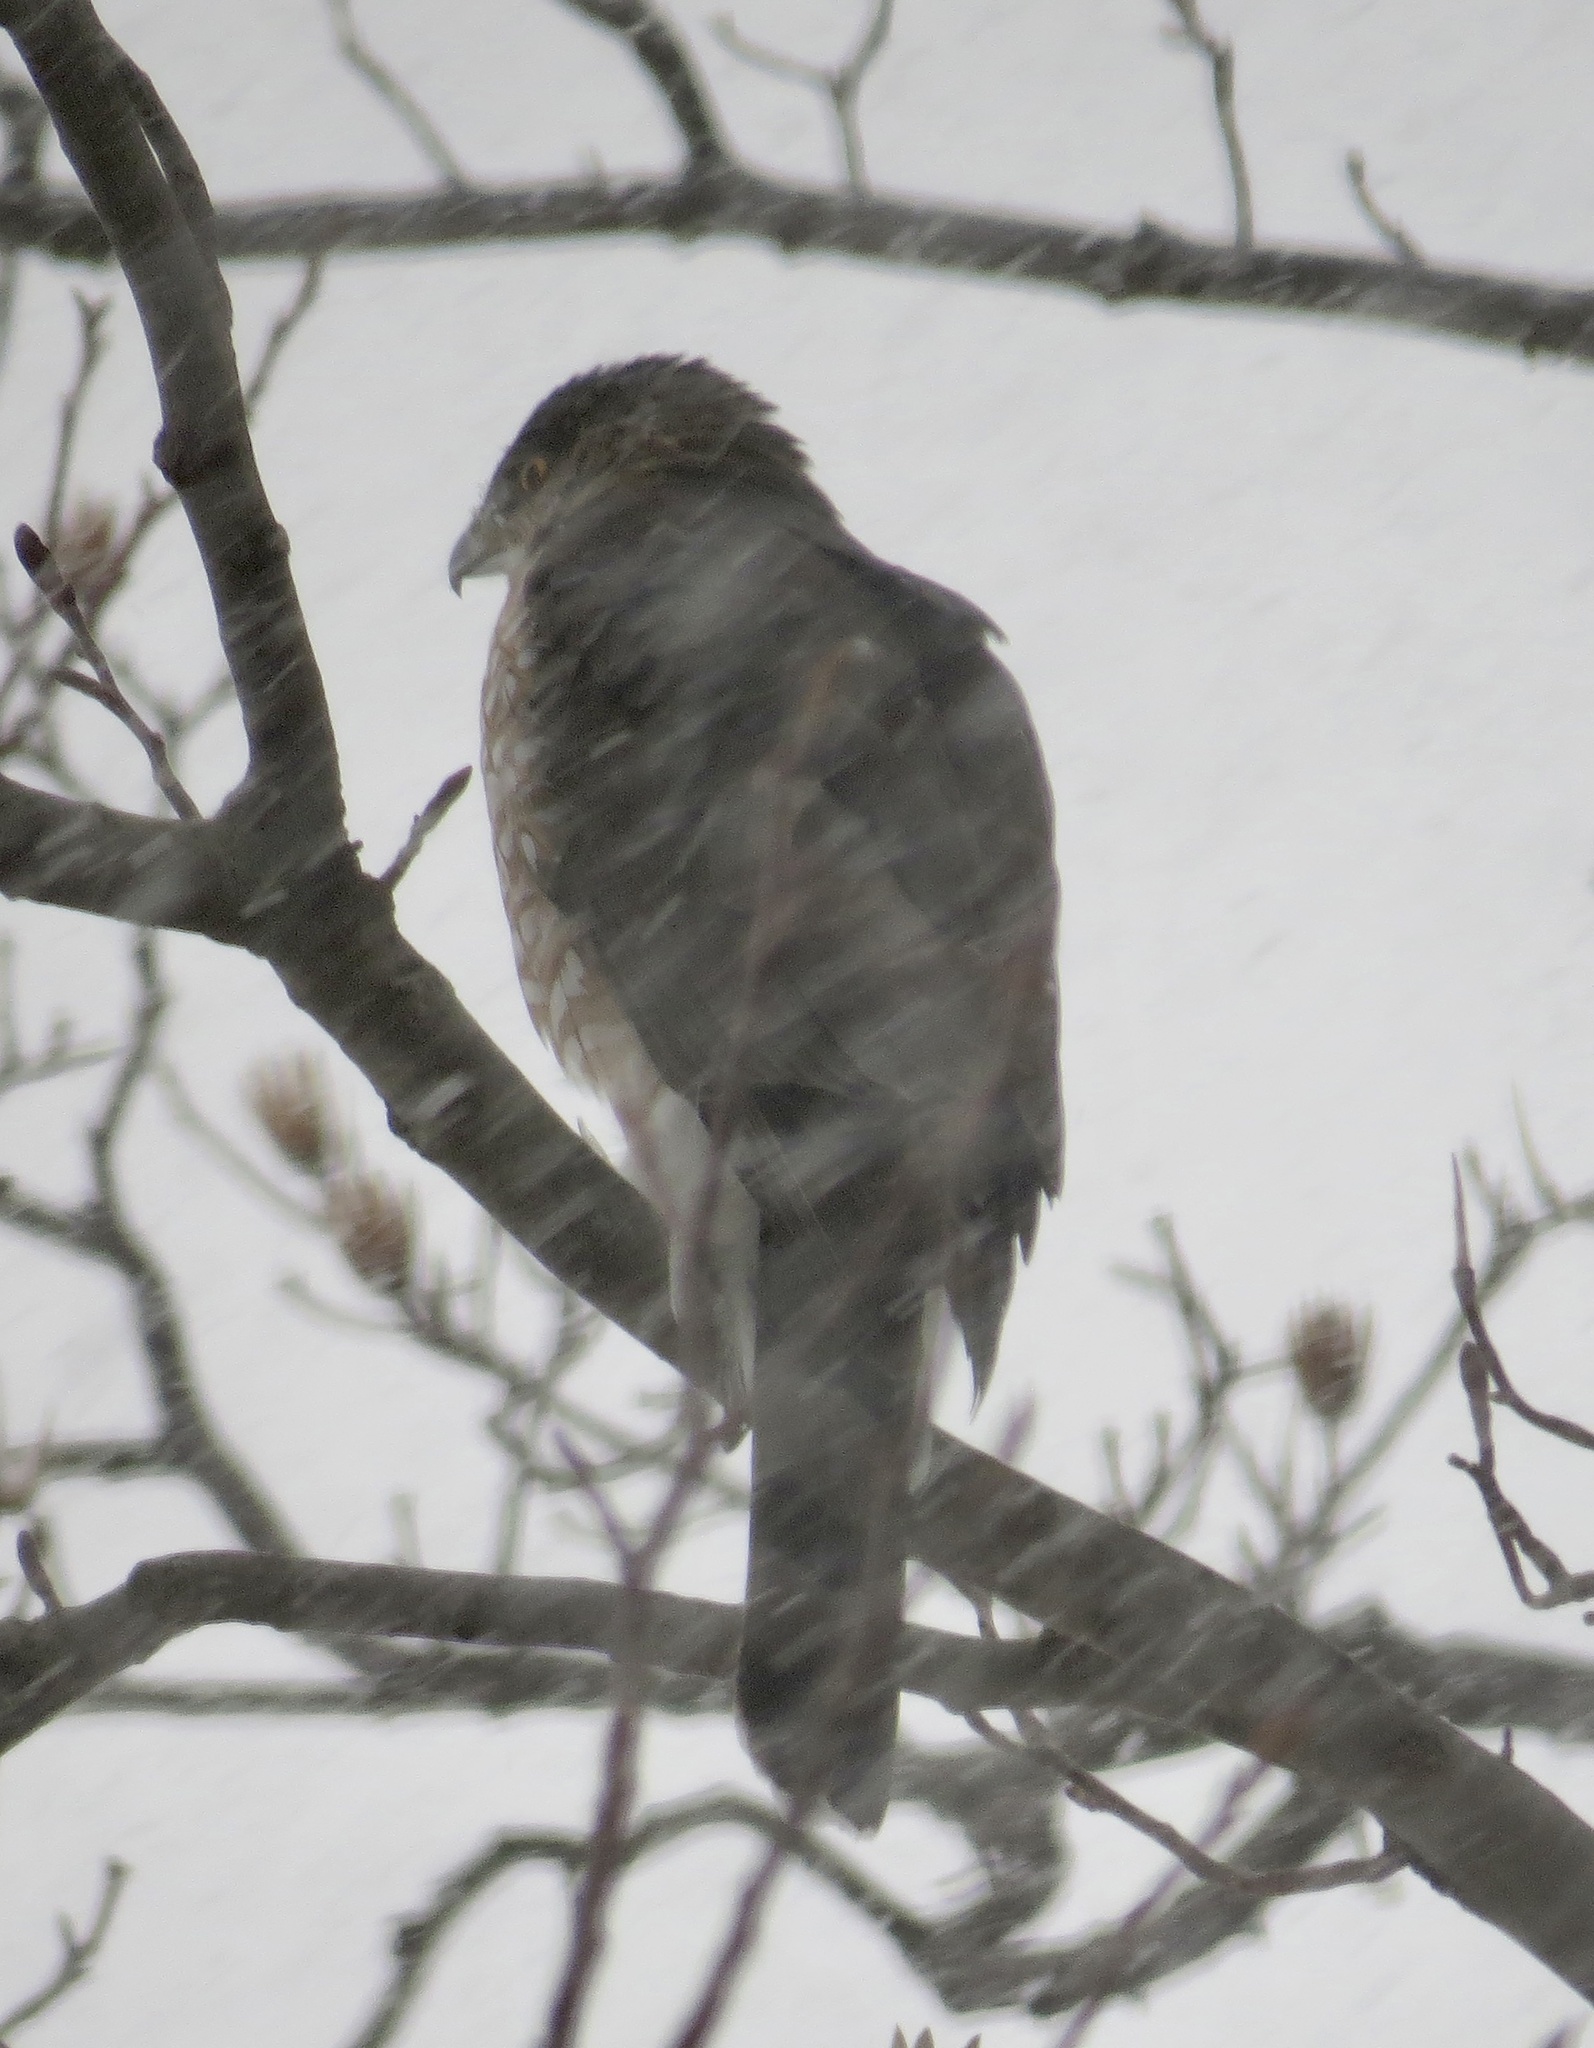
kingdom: Animalia
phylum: Chordata
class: Aves
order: Accipitriformes
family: Accipitridae
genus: Accipiter
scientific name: Accipiter cooperii
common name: Cooper's hawk
